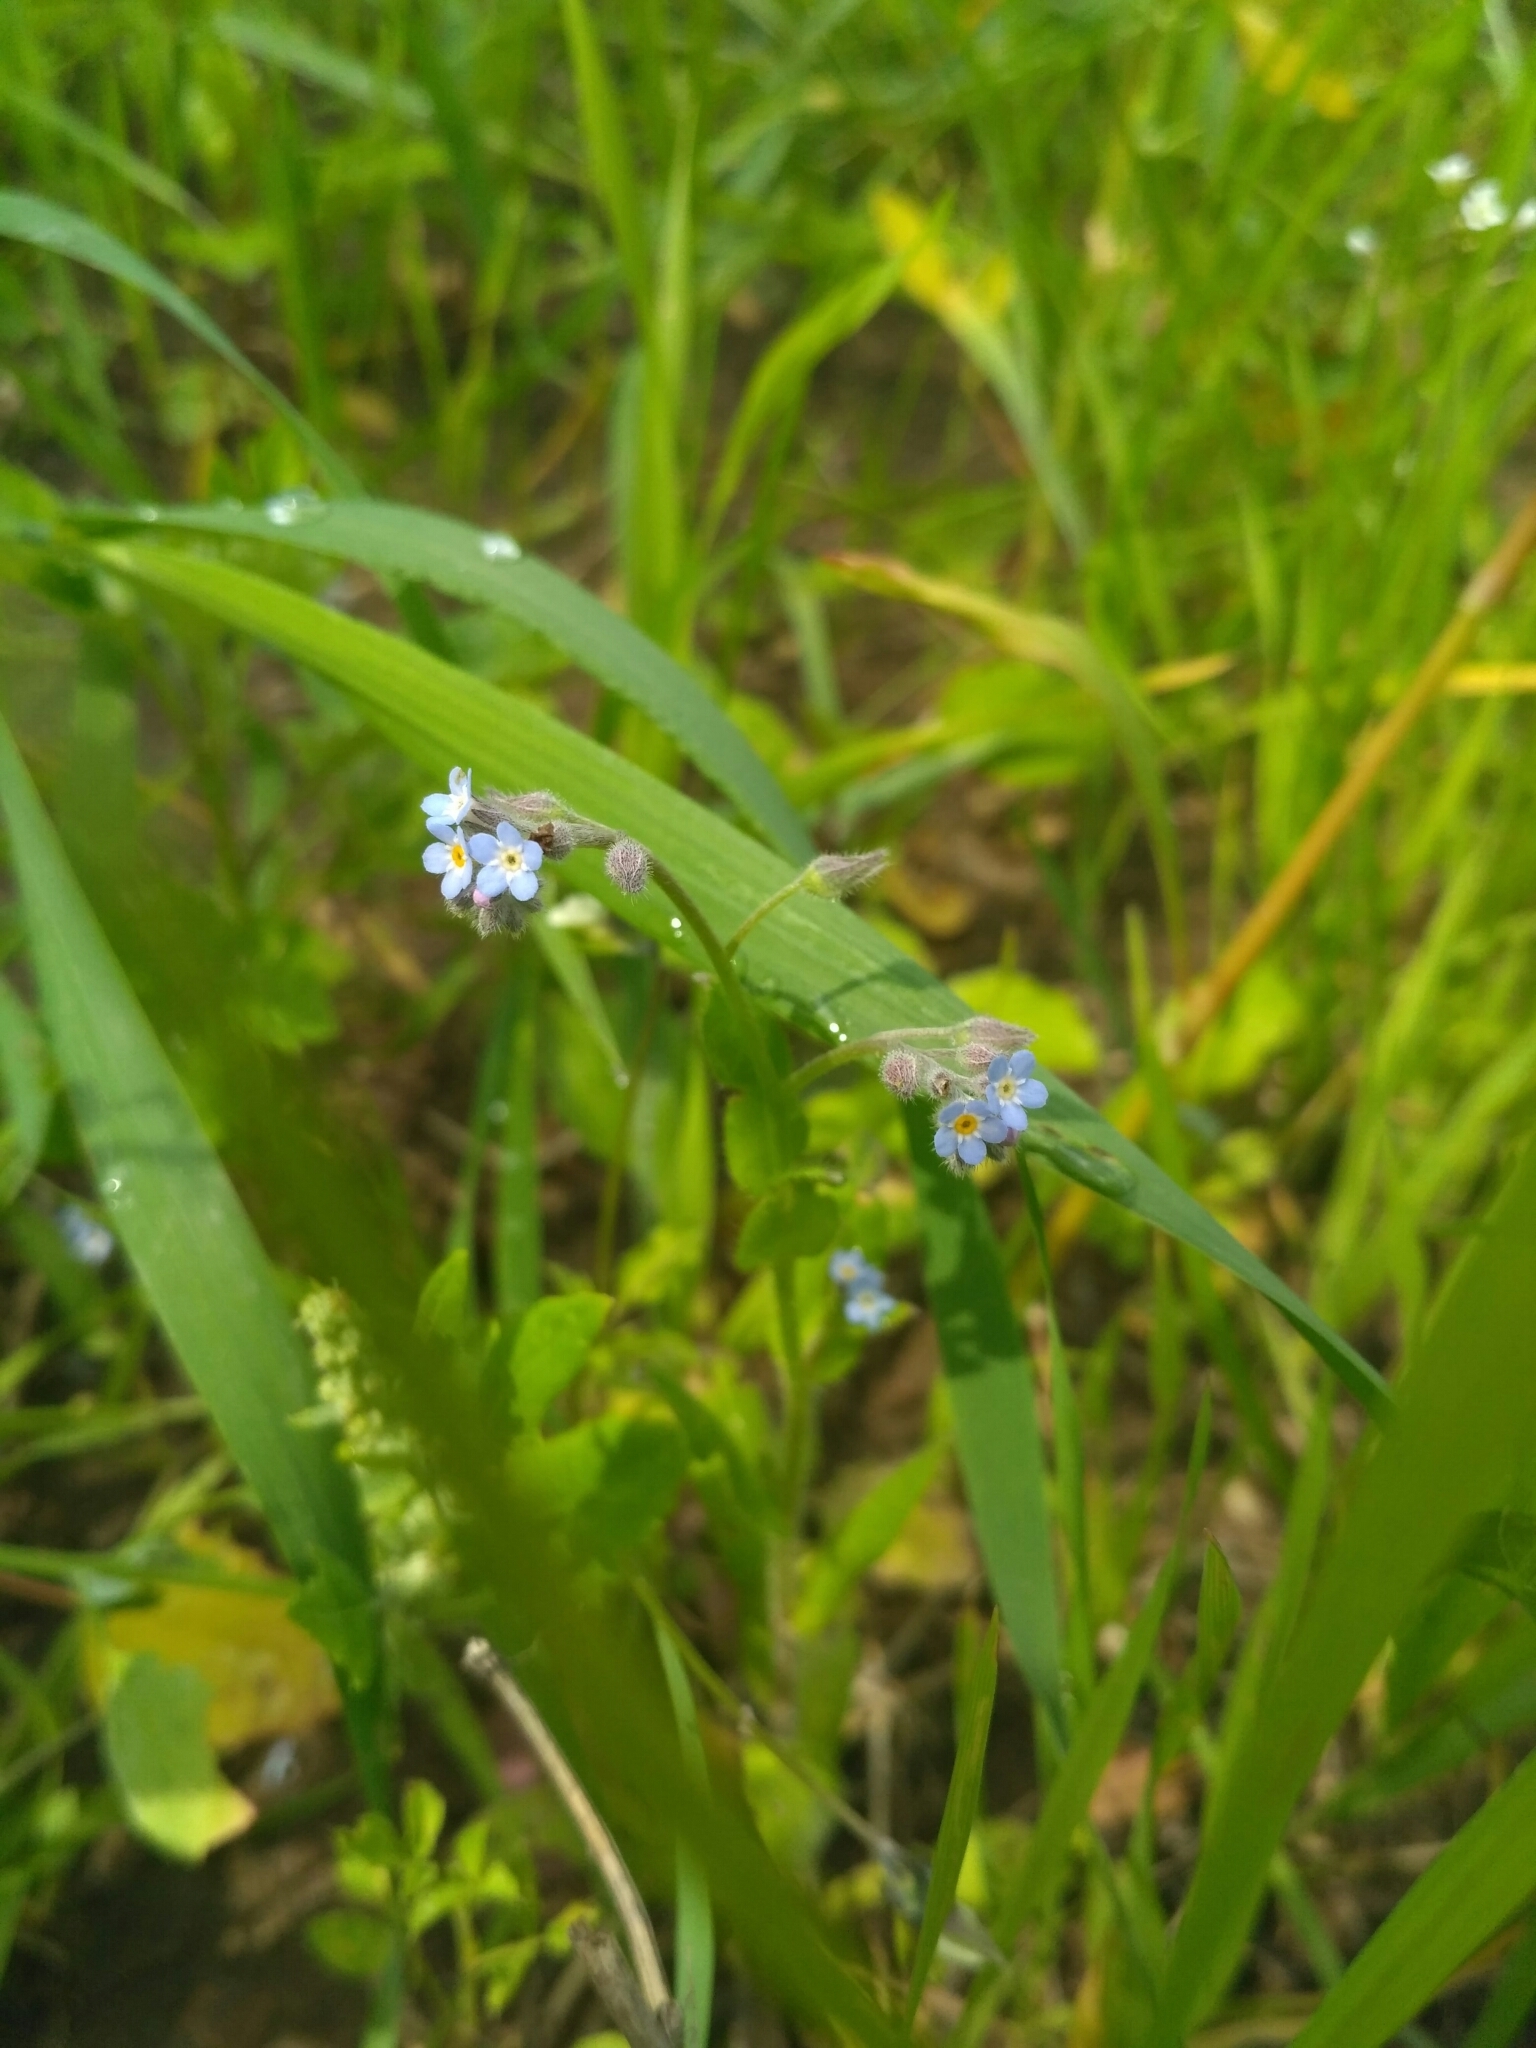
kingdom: Plantae
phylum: Tracheophyta
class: Magnoliopsida
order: Boraginales
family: Boraginaceae
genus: Myosotis
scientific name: Myosotis arvensis
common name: Field forget-me-not
